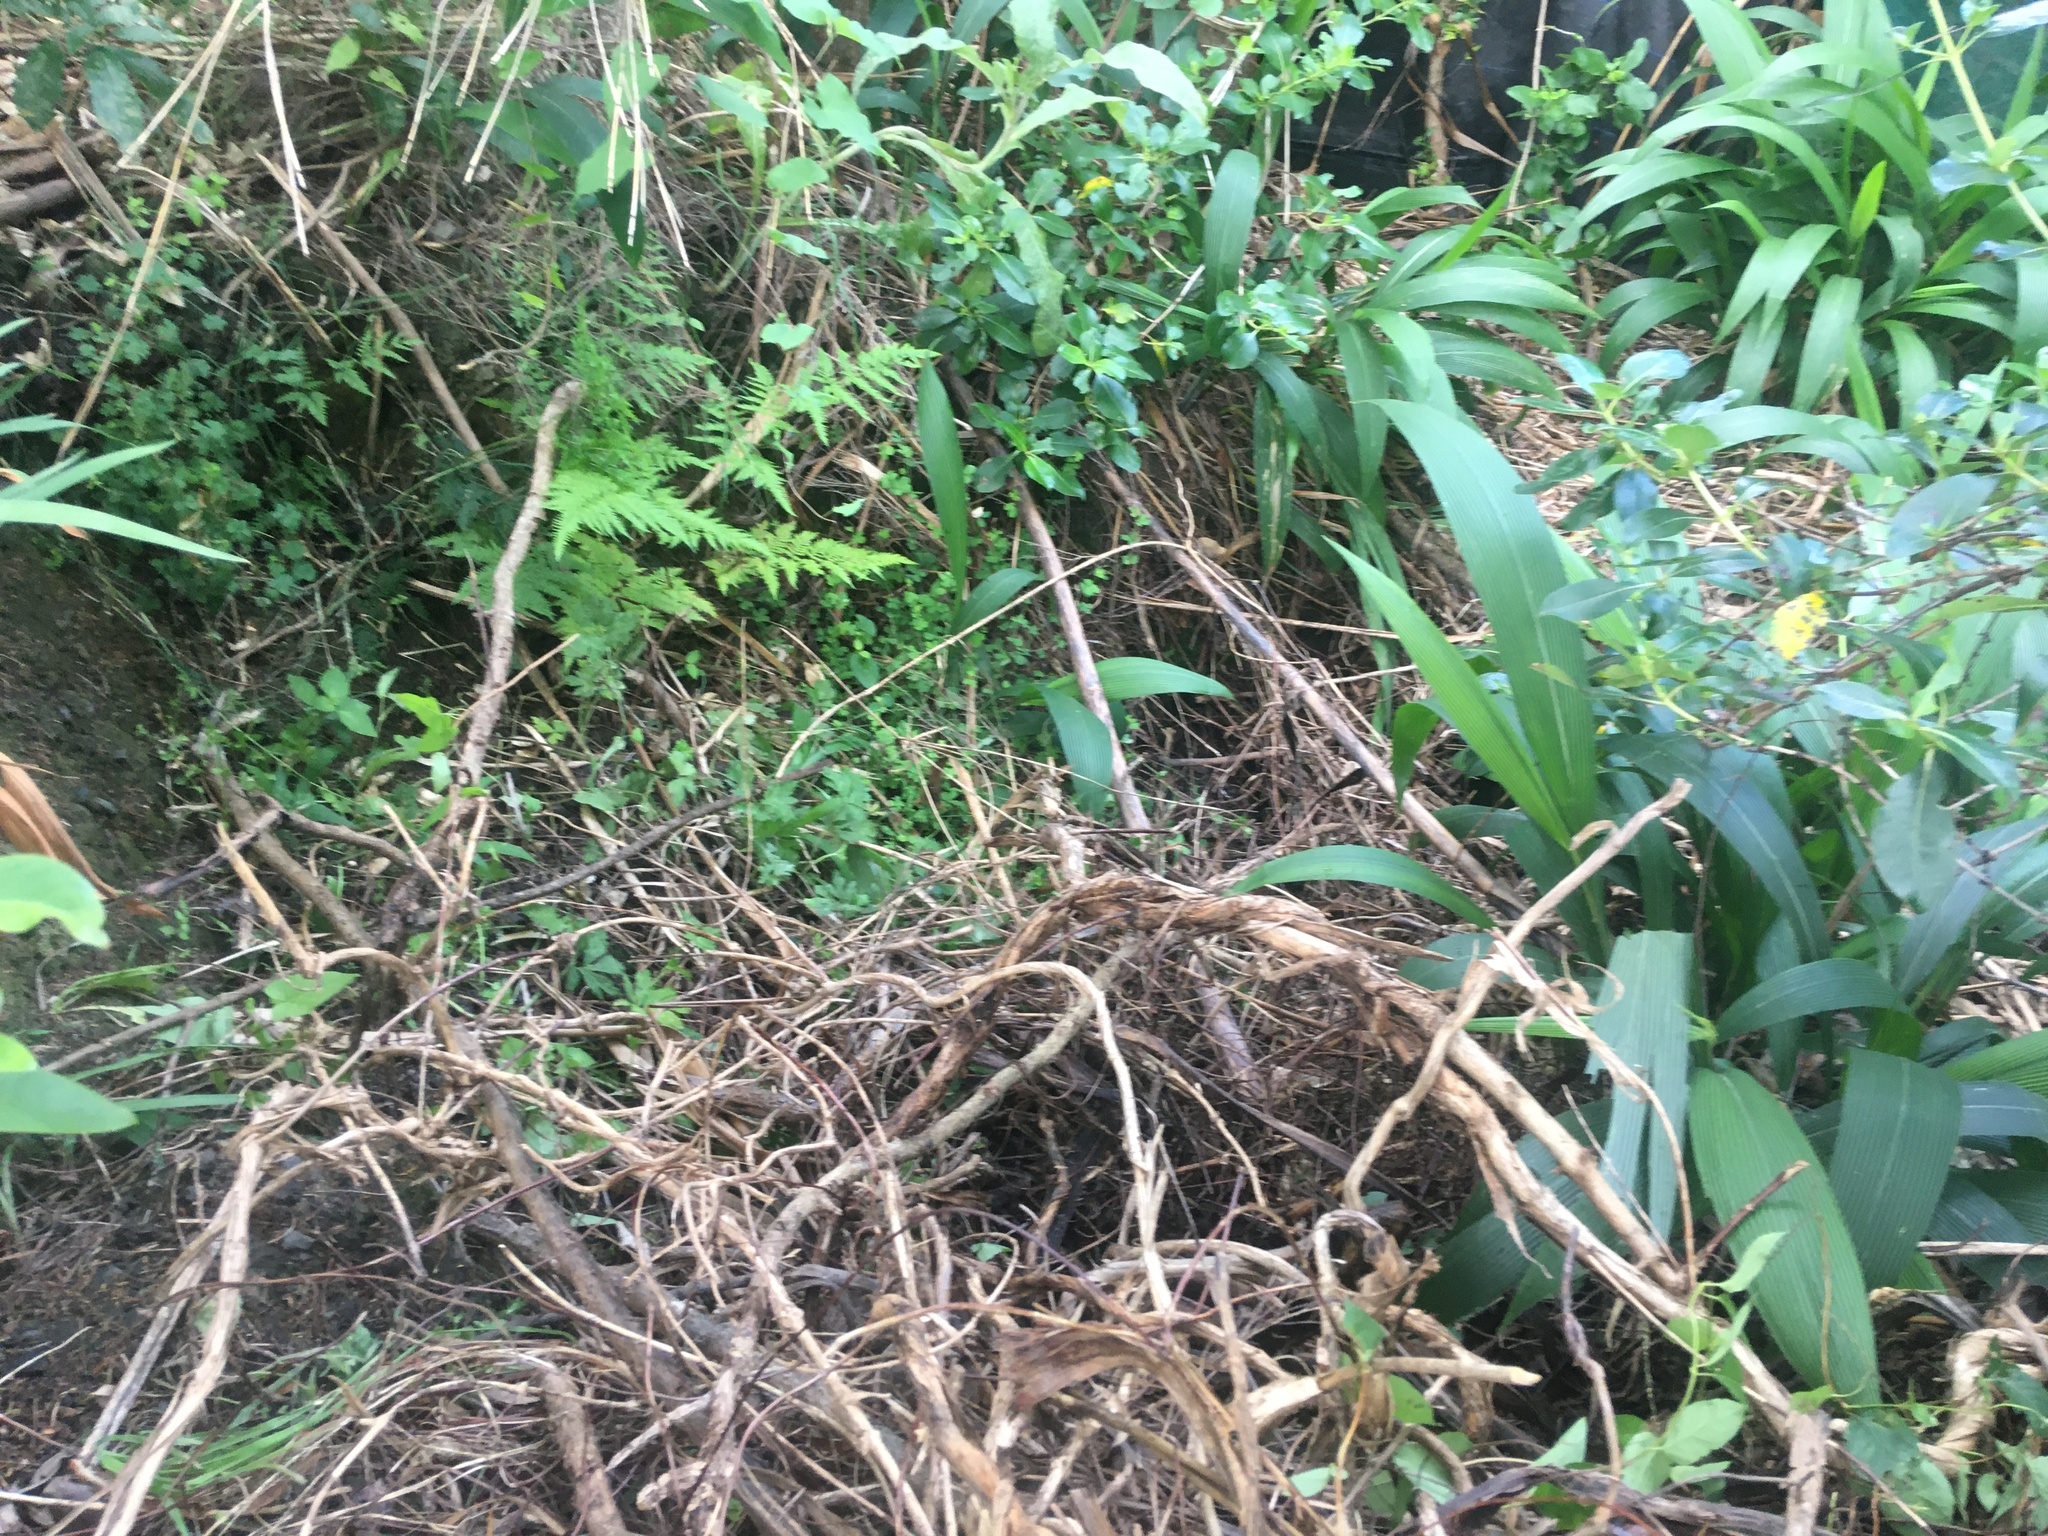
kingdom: Plantae
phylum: Tracheophyta
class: Liliopsida
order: Poales
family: Poaceae
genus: Setaria
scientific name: Setaria palmifolia
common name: Broadleaved bristlegrass
